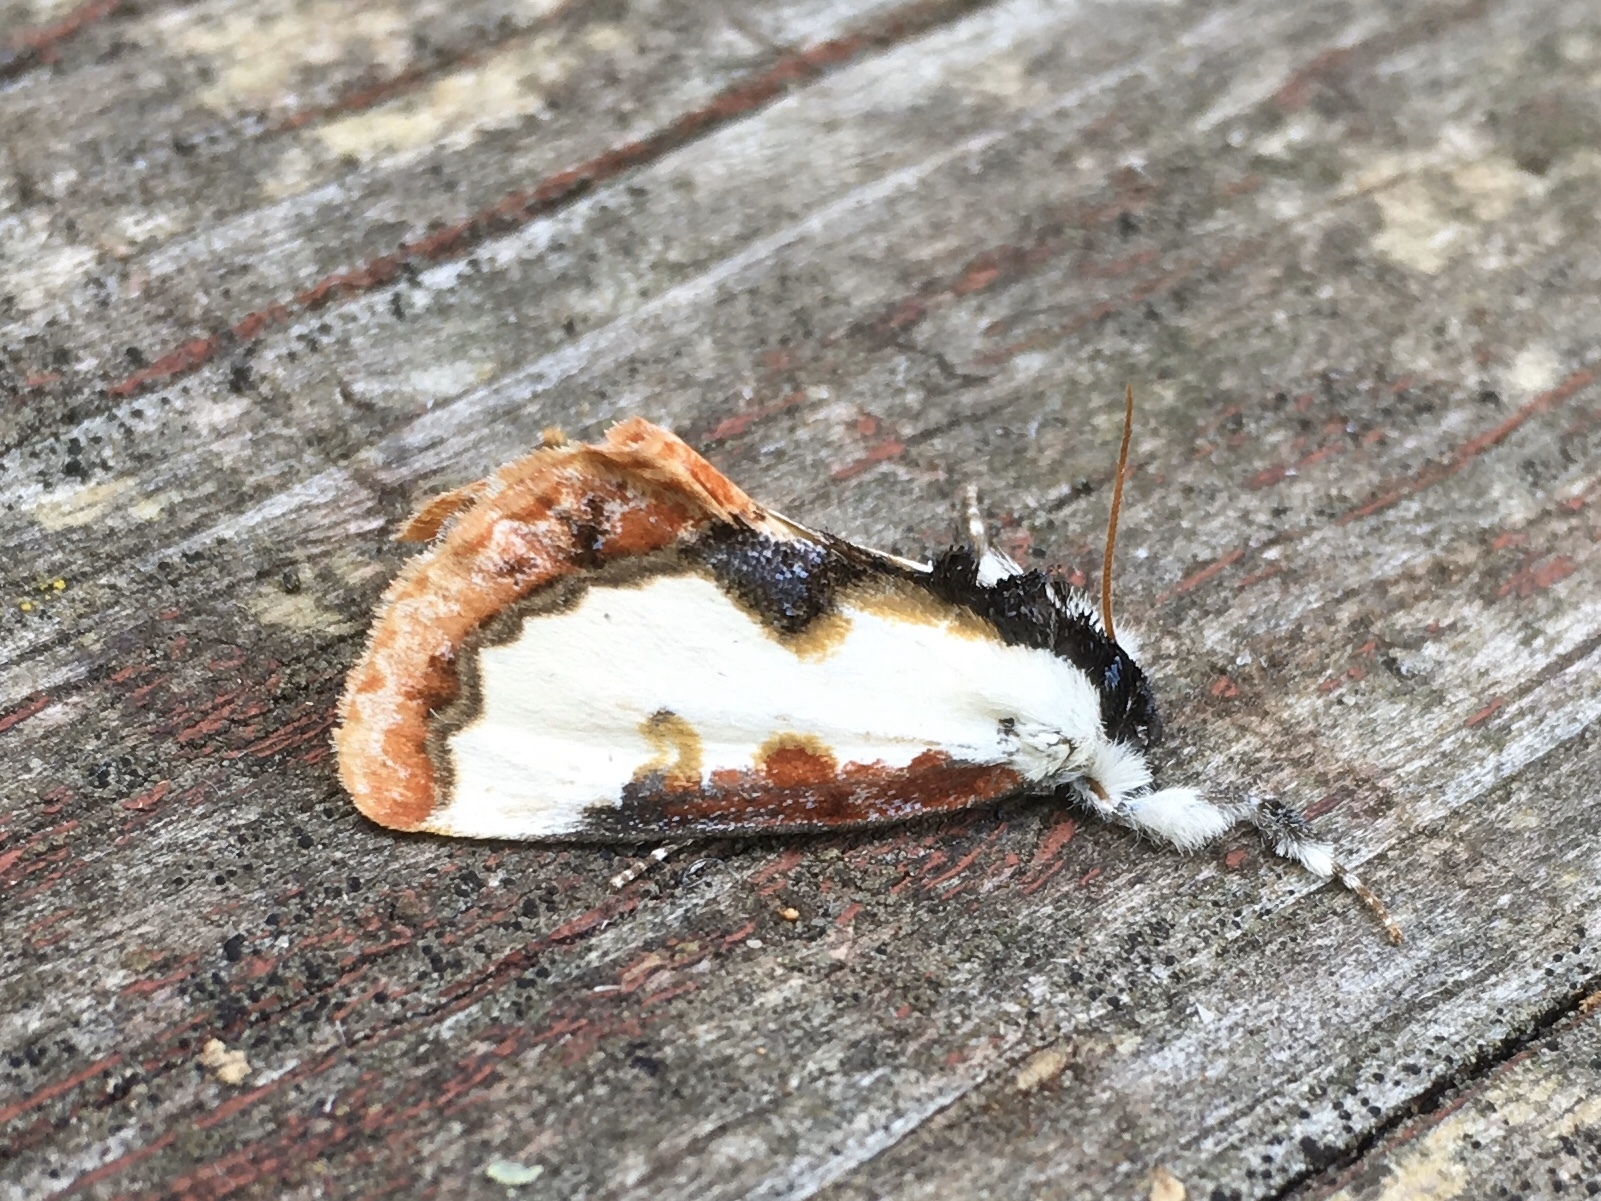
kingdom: Animalia
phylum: Arthropoda
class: Insecta
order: Lepidoptera
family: Noctuidae
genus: Eudryas
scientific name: Eudryas unio
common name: Pearly wood-nymph
